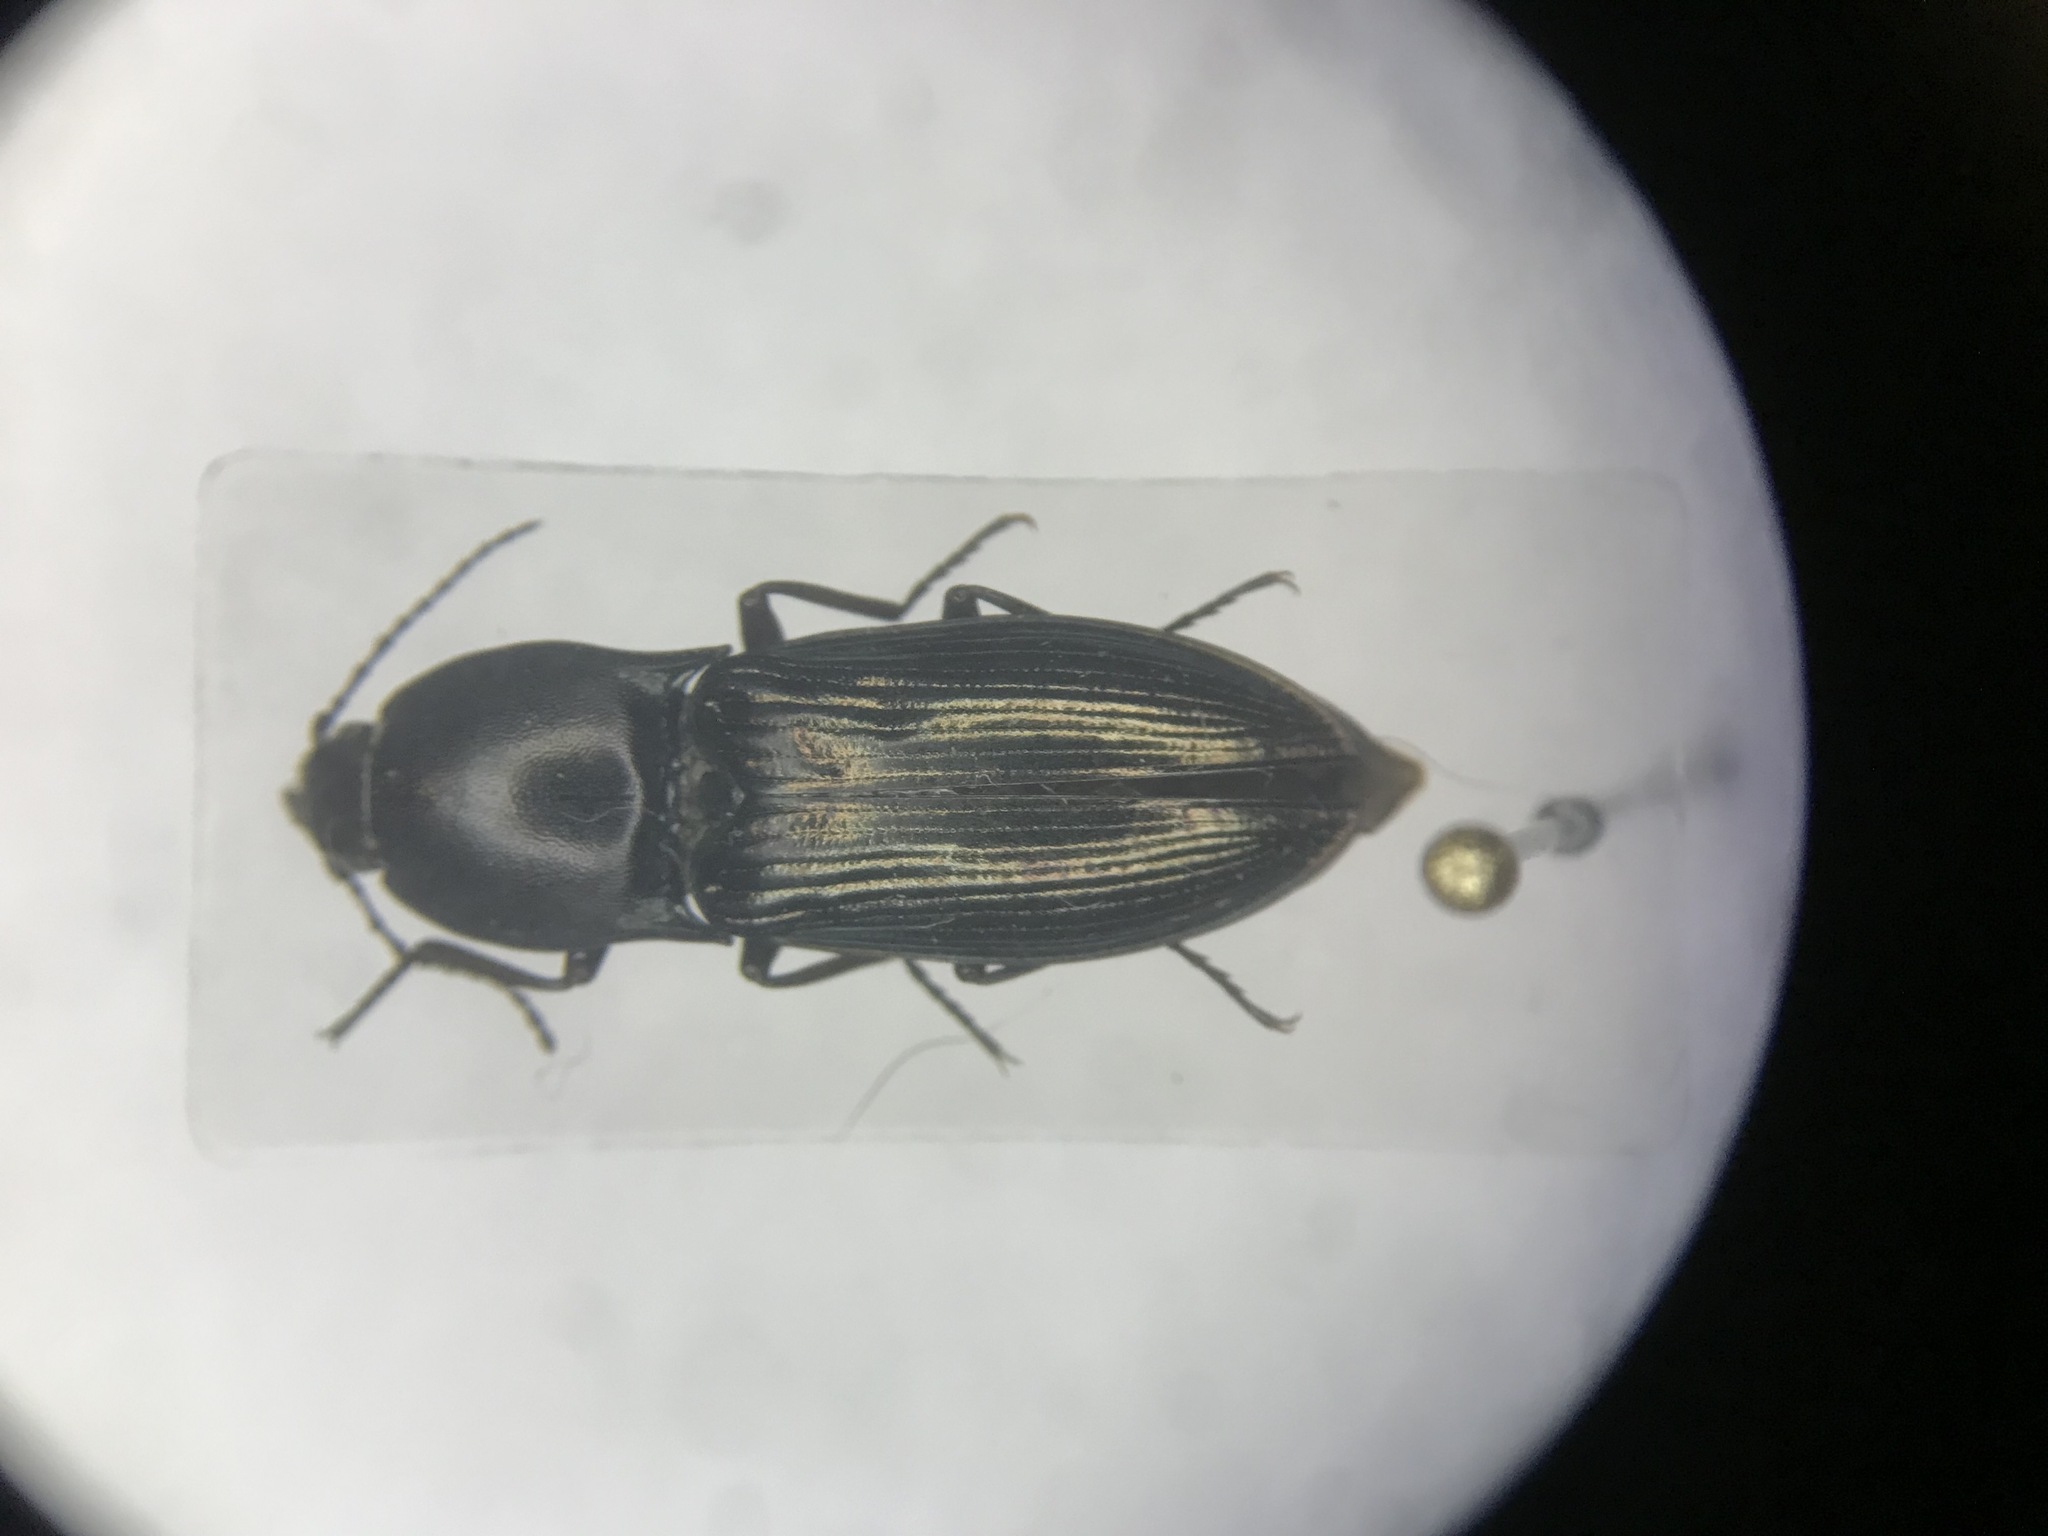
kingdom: Animalia
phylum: Arthropoda
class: Insecta
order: Coleoptera
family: Elateridae
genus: Selatosomus
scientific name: Selatosomus appropinquans
